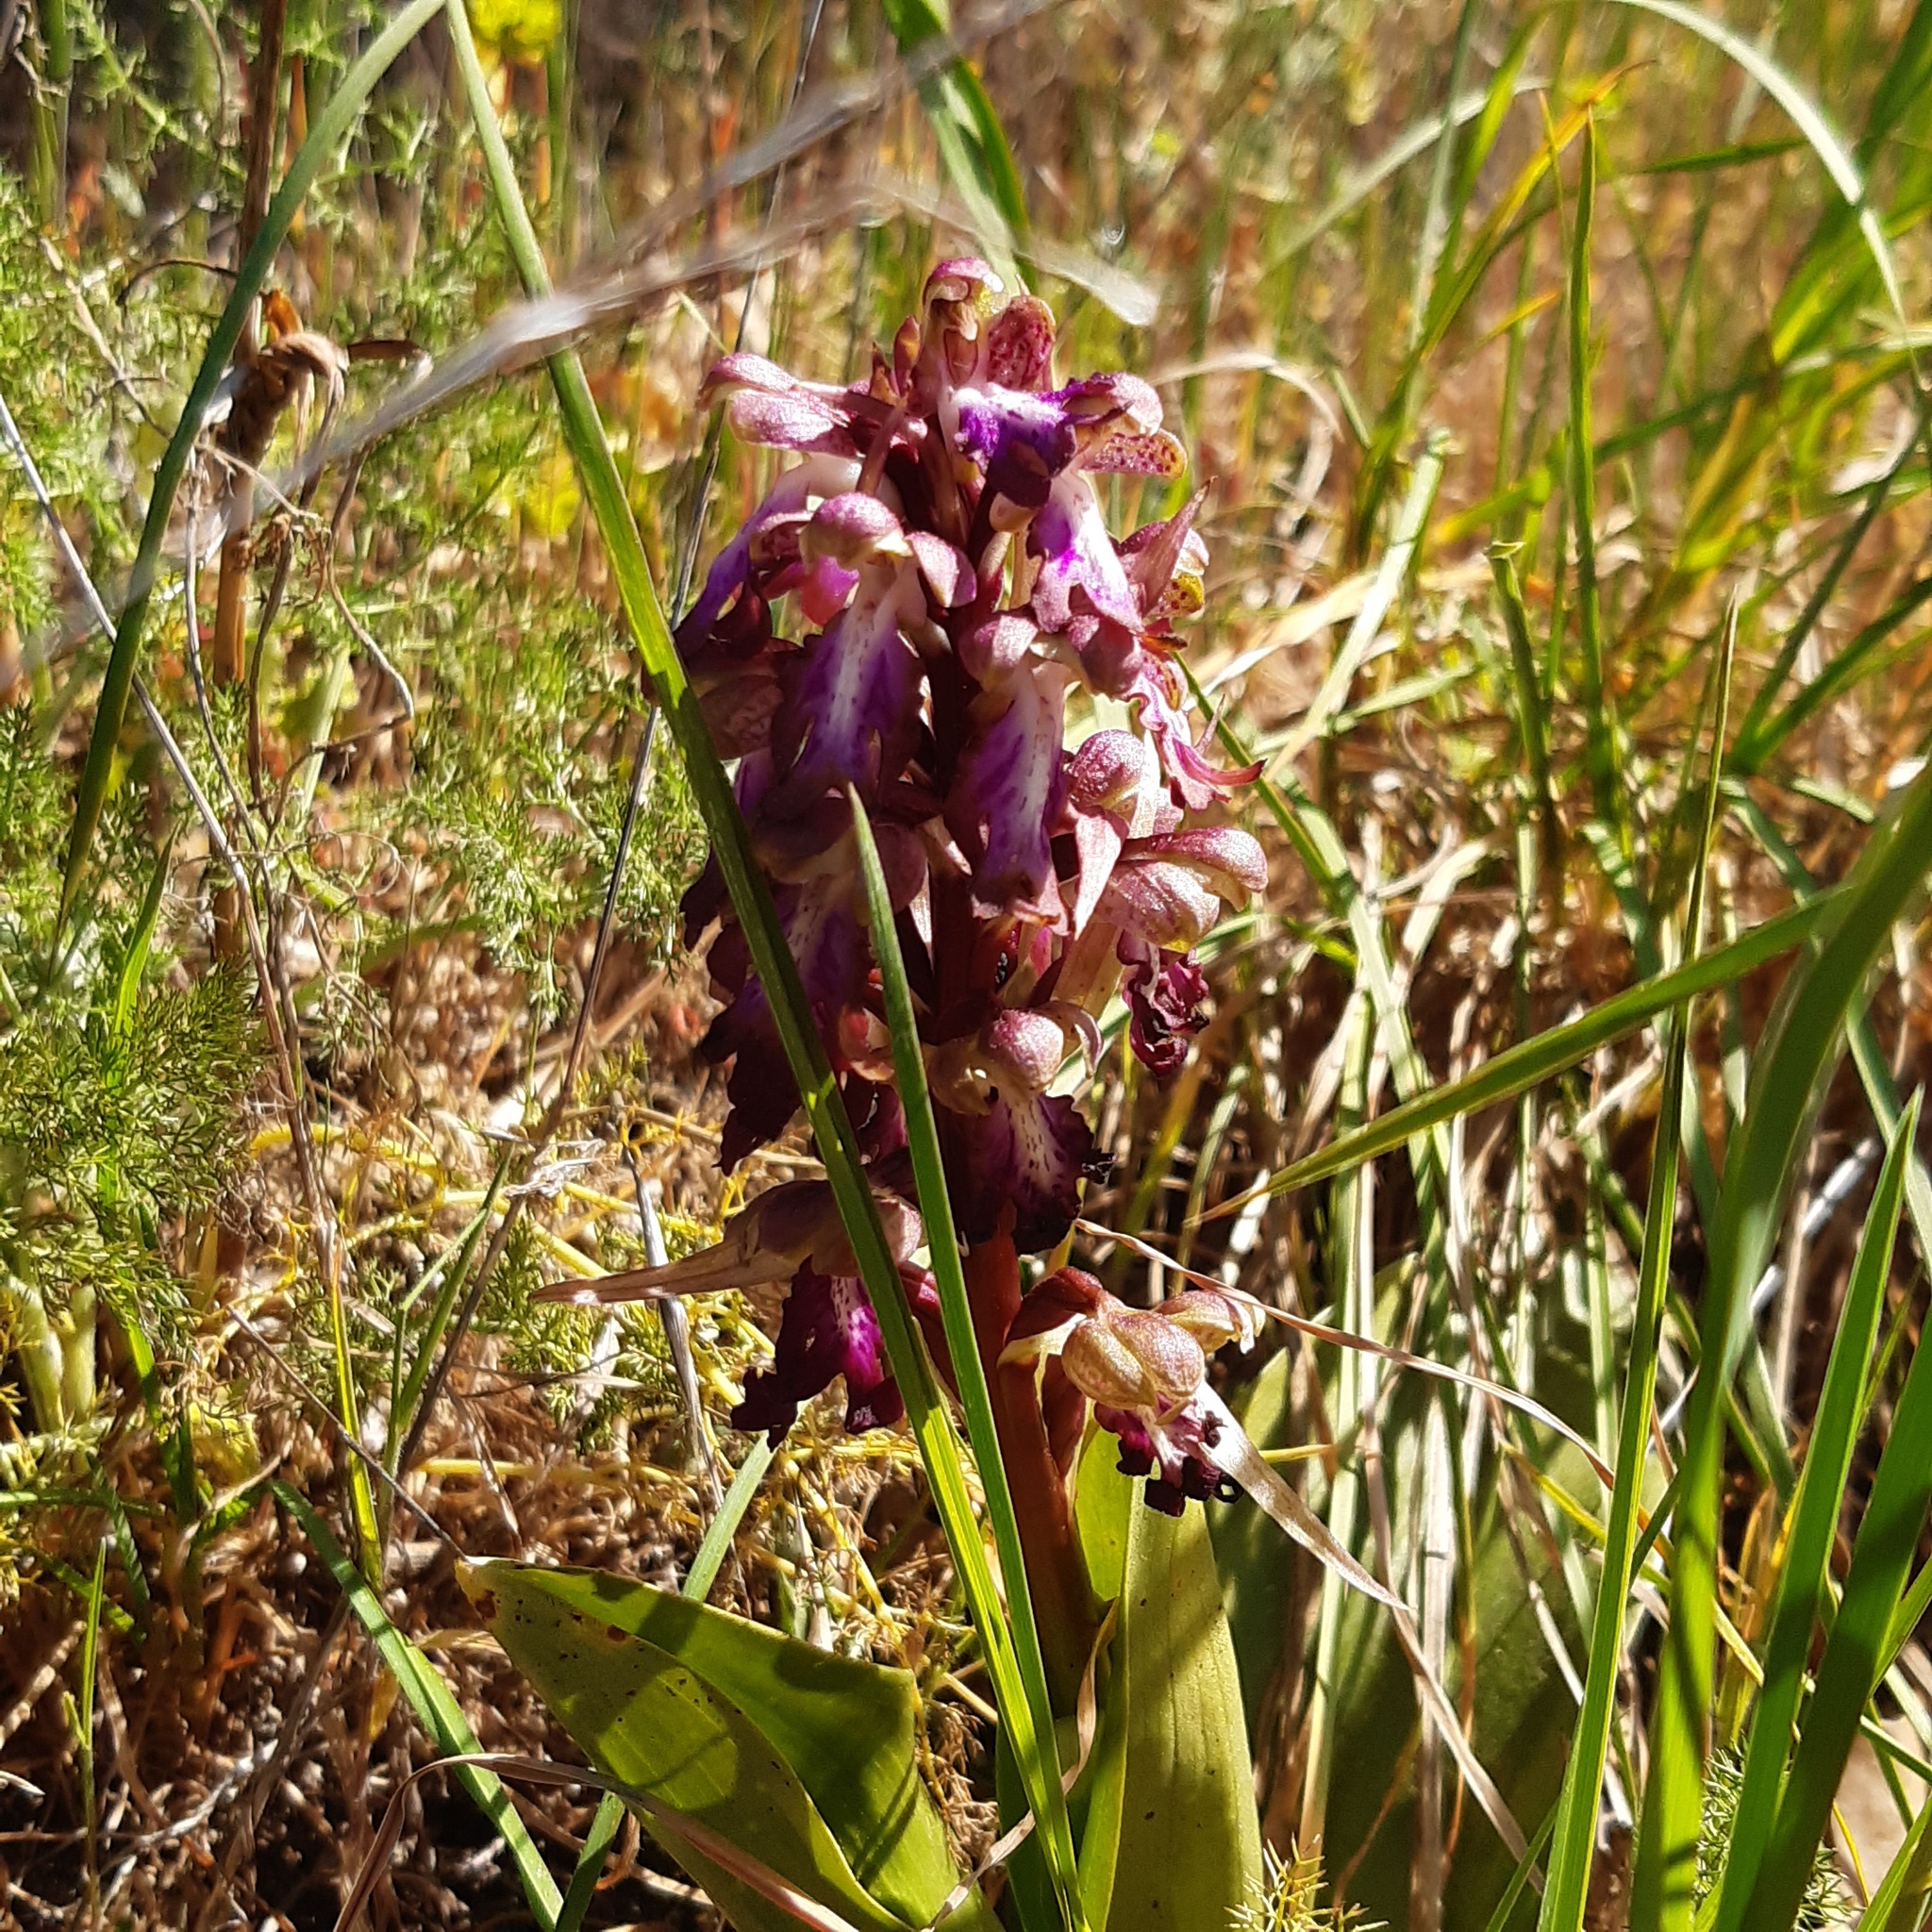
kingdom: Plantae
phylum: Tracheophyta
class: Liliopsida
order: Asparagales
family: Orchidaceae
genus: Himantoglossum
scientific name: Himantoglossum robertianum
